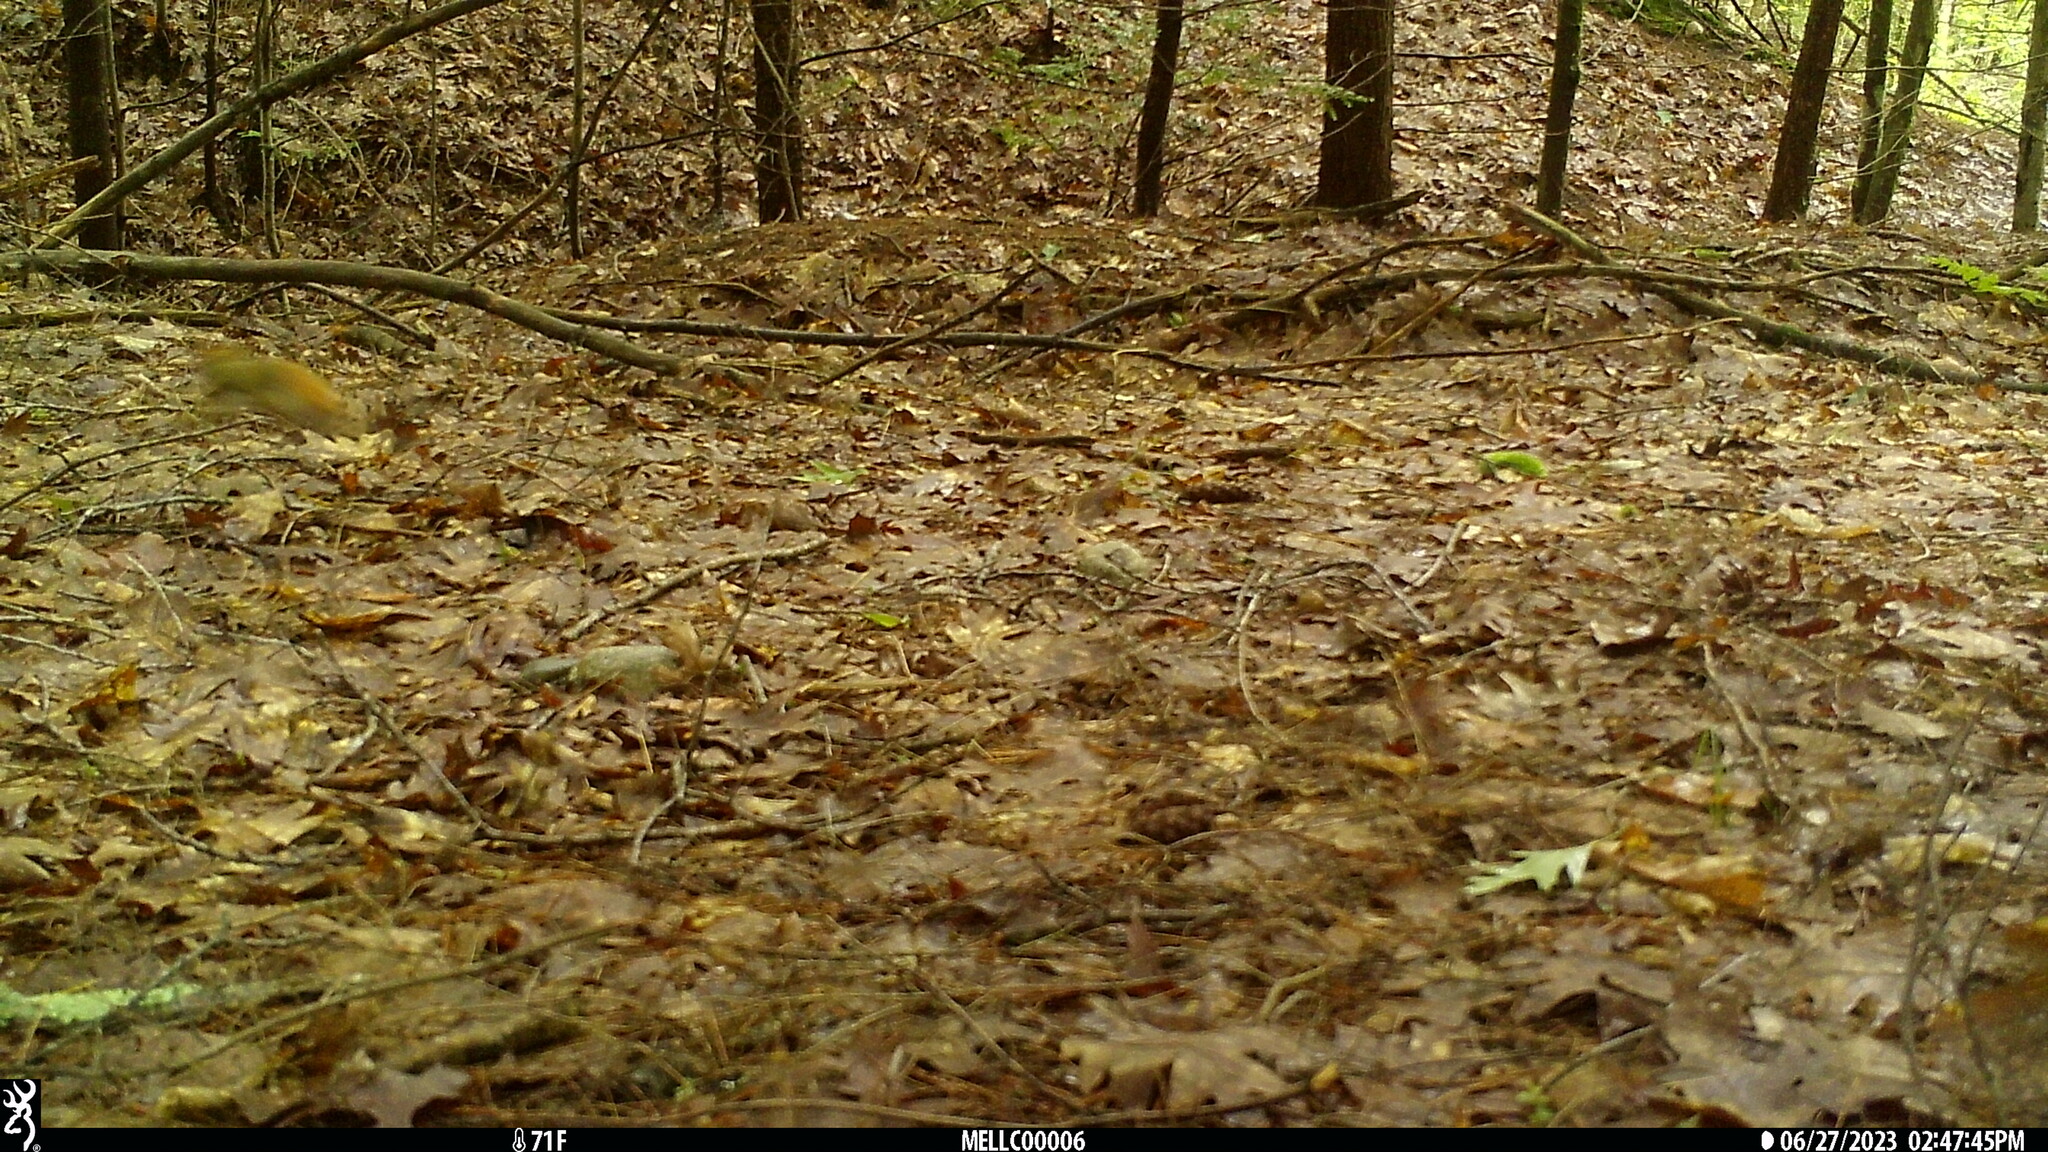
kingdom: Animalia
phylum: Chordata
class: Mammalia
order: Rodentia
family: Sciuridae
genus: Tamiasciurus
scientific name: Tamiasciurus hudsonicus
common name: Red squirrel
